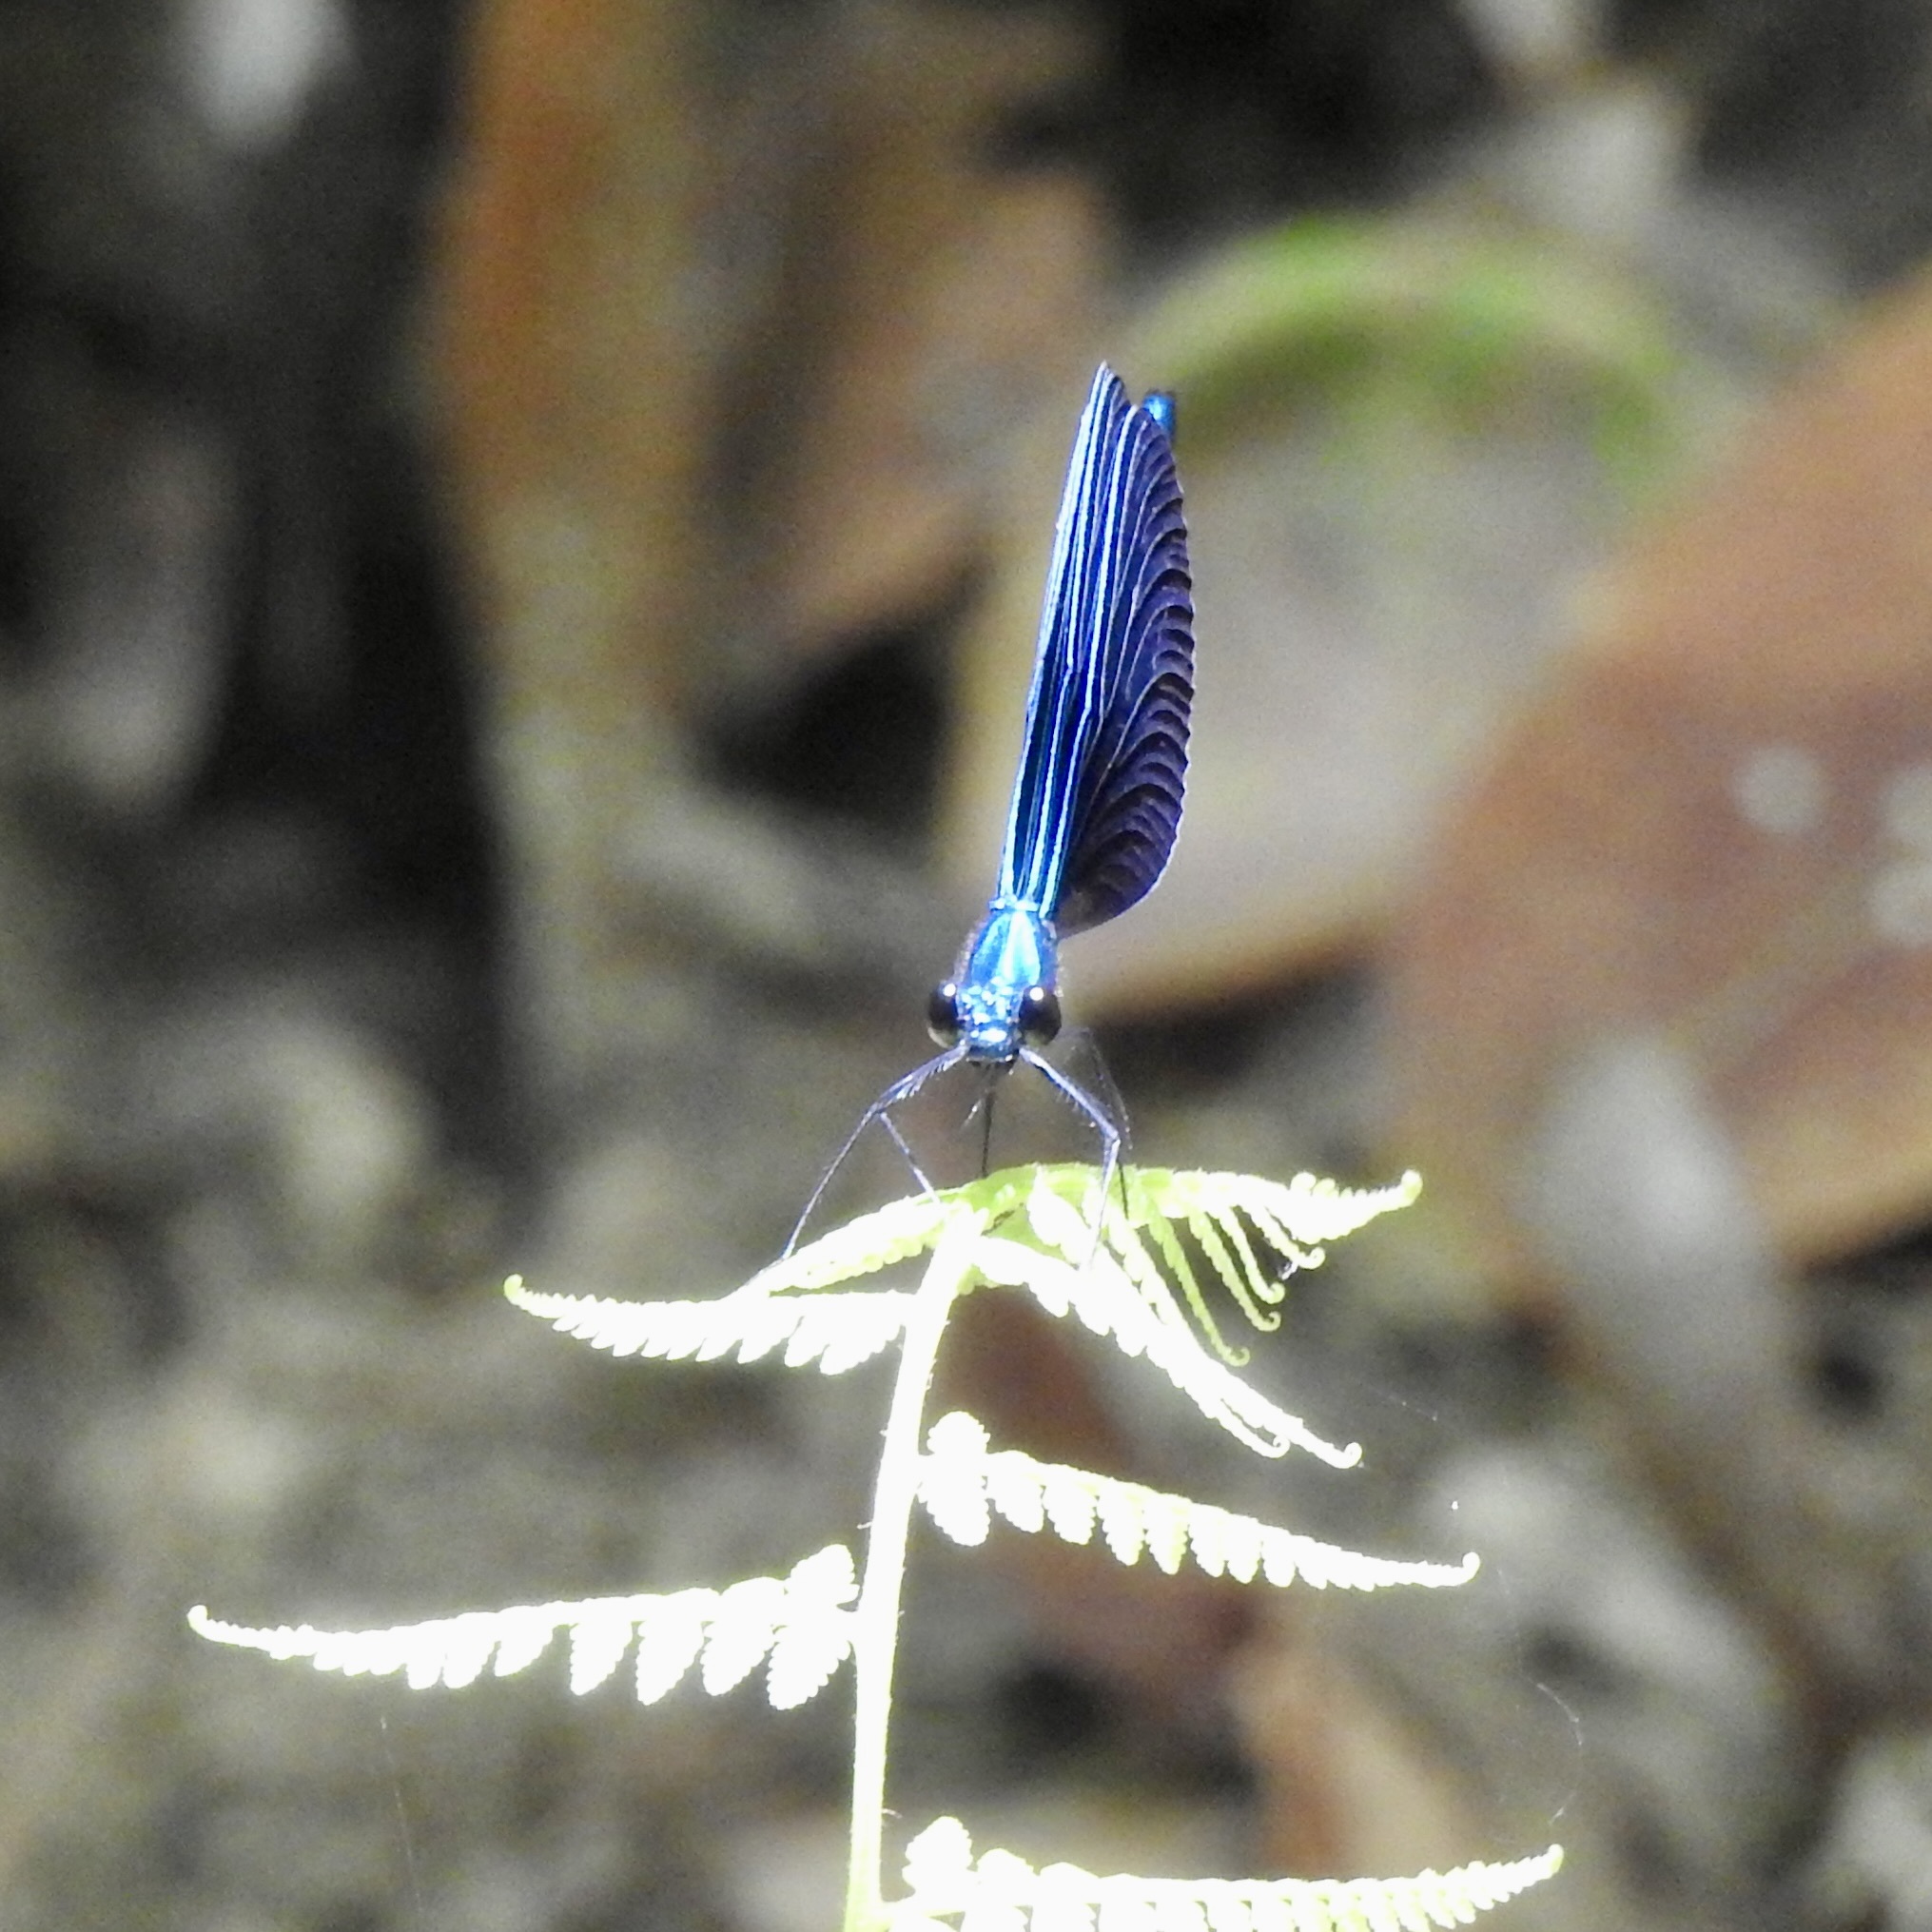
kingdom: Animalia
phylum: Arthropoda
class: Insecta
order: Odonata
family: Calopterygidae
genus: Calopteryx
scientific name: Calopteryx maculata
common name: Ebony jewelwing
